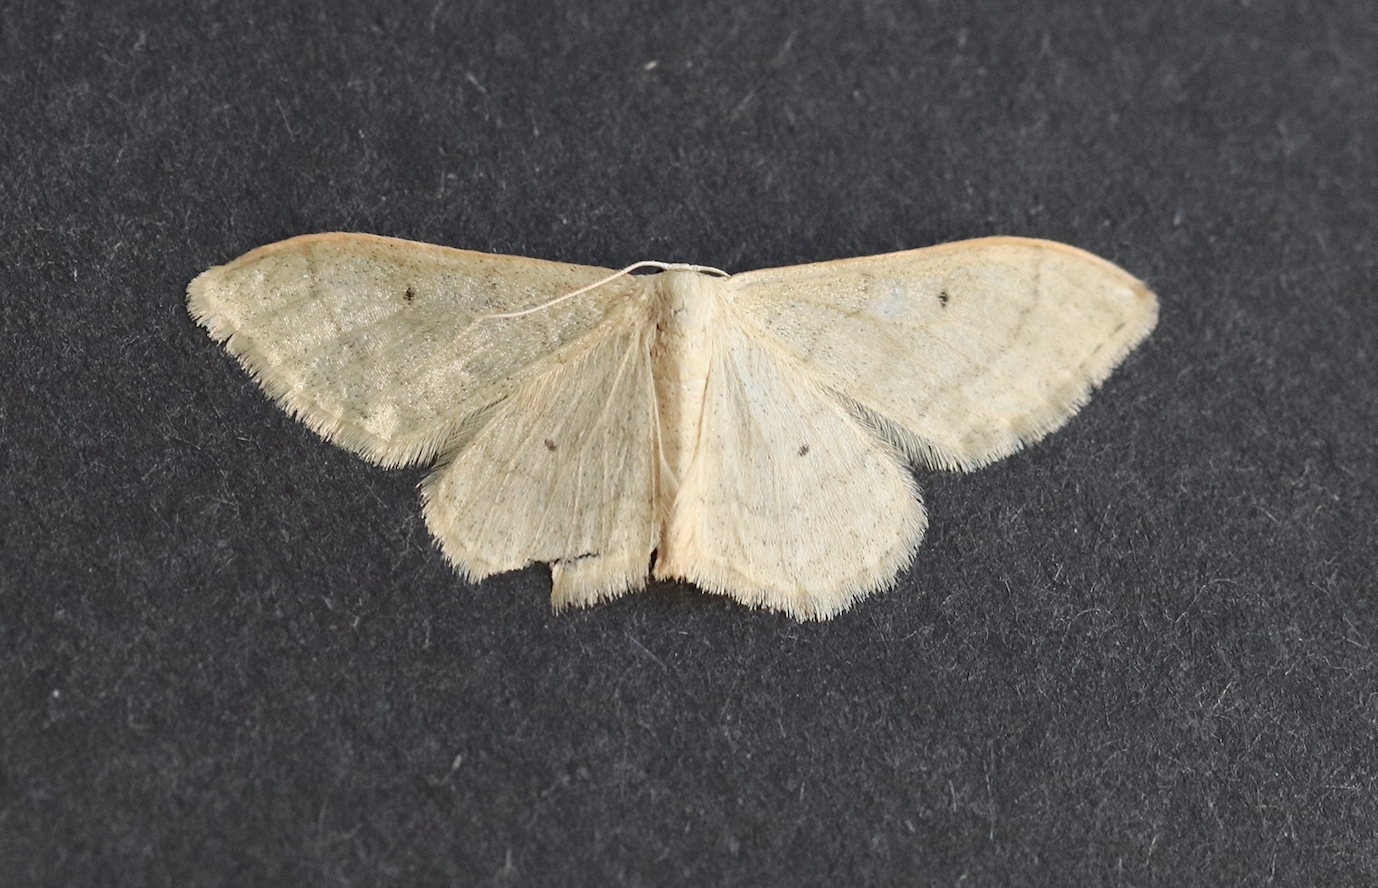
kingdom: Animalia
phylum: Arthropoda
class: Insecta
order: Lepidoptera
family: Geometridae
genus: Idaea
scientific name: Idaea straminata
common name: Plain wave
